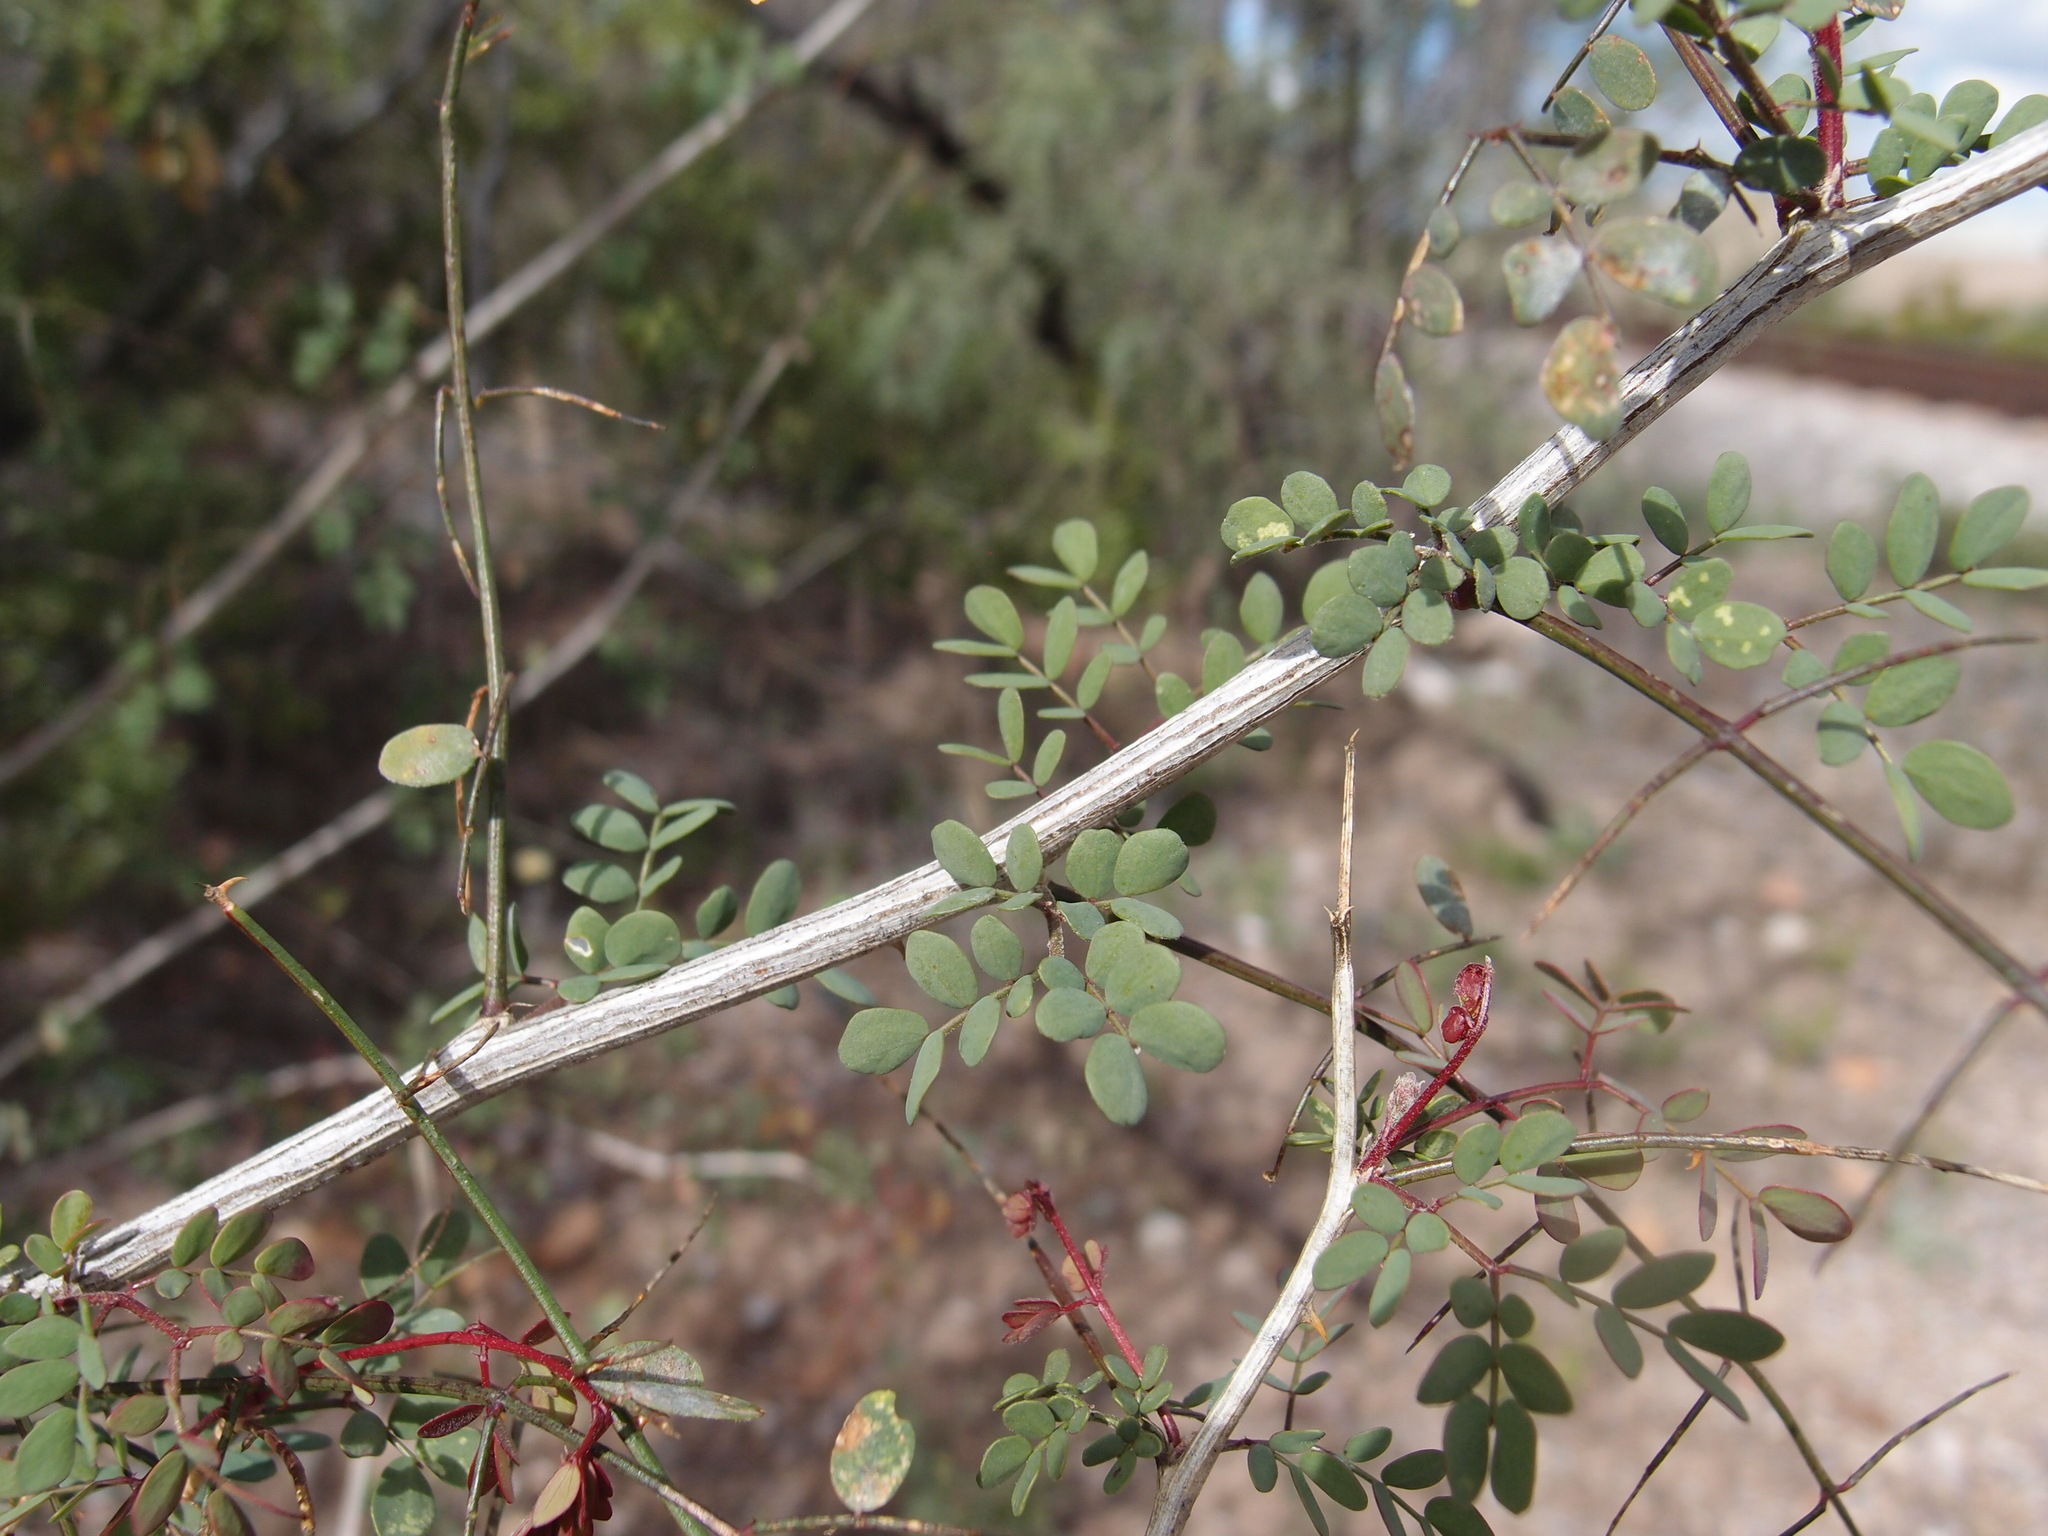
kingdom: Plantae
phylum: Tracheophyta
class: Magnoliopsida
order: Fabales
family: Fabaceae
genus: Mimosa
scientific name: Mimosa distachya
